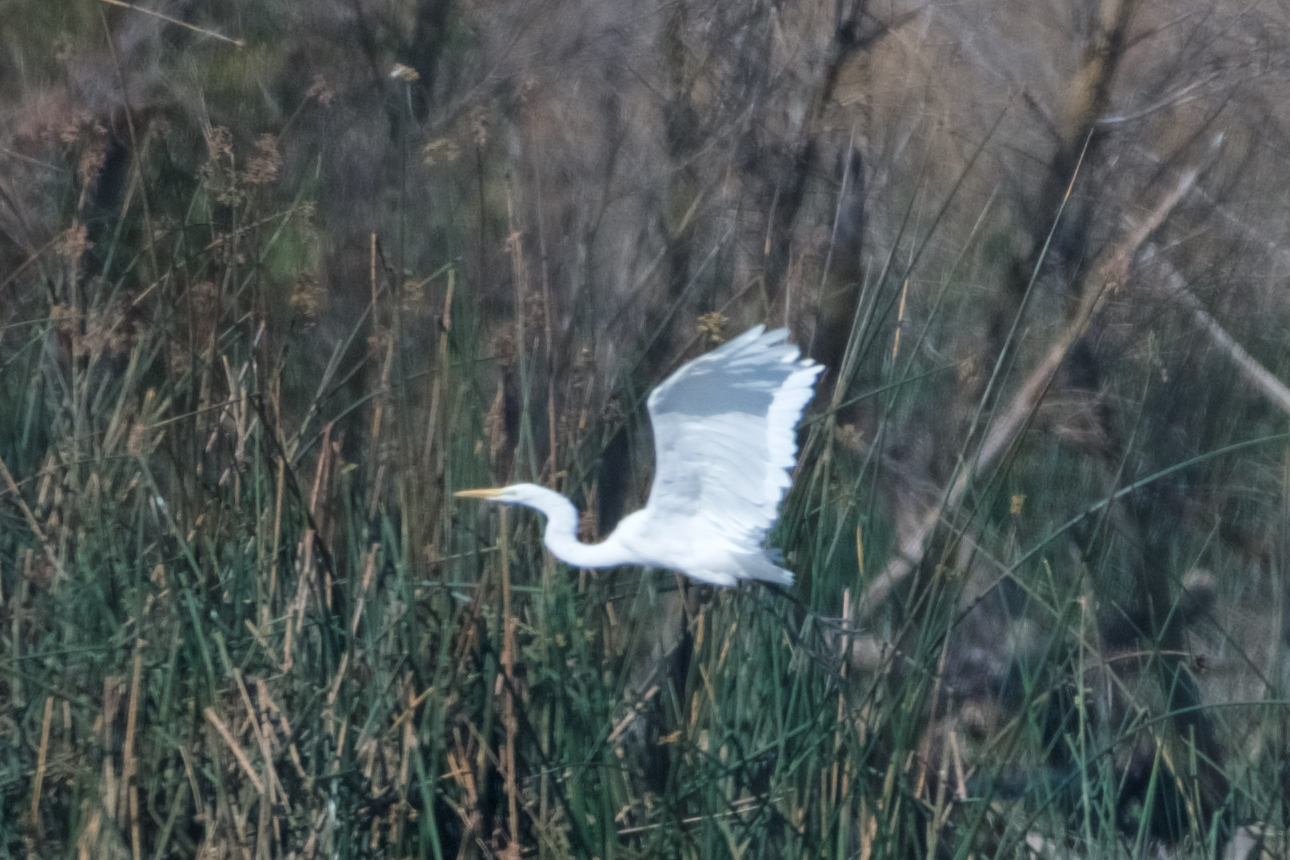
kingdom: Animalia
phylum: Chordata
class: Aves
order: Pelecaniformes
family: Ardeidae
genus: Ardea
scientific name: Ardea alba
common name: Great egret
